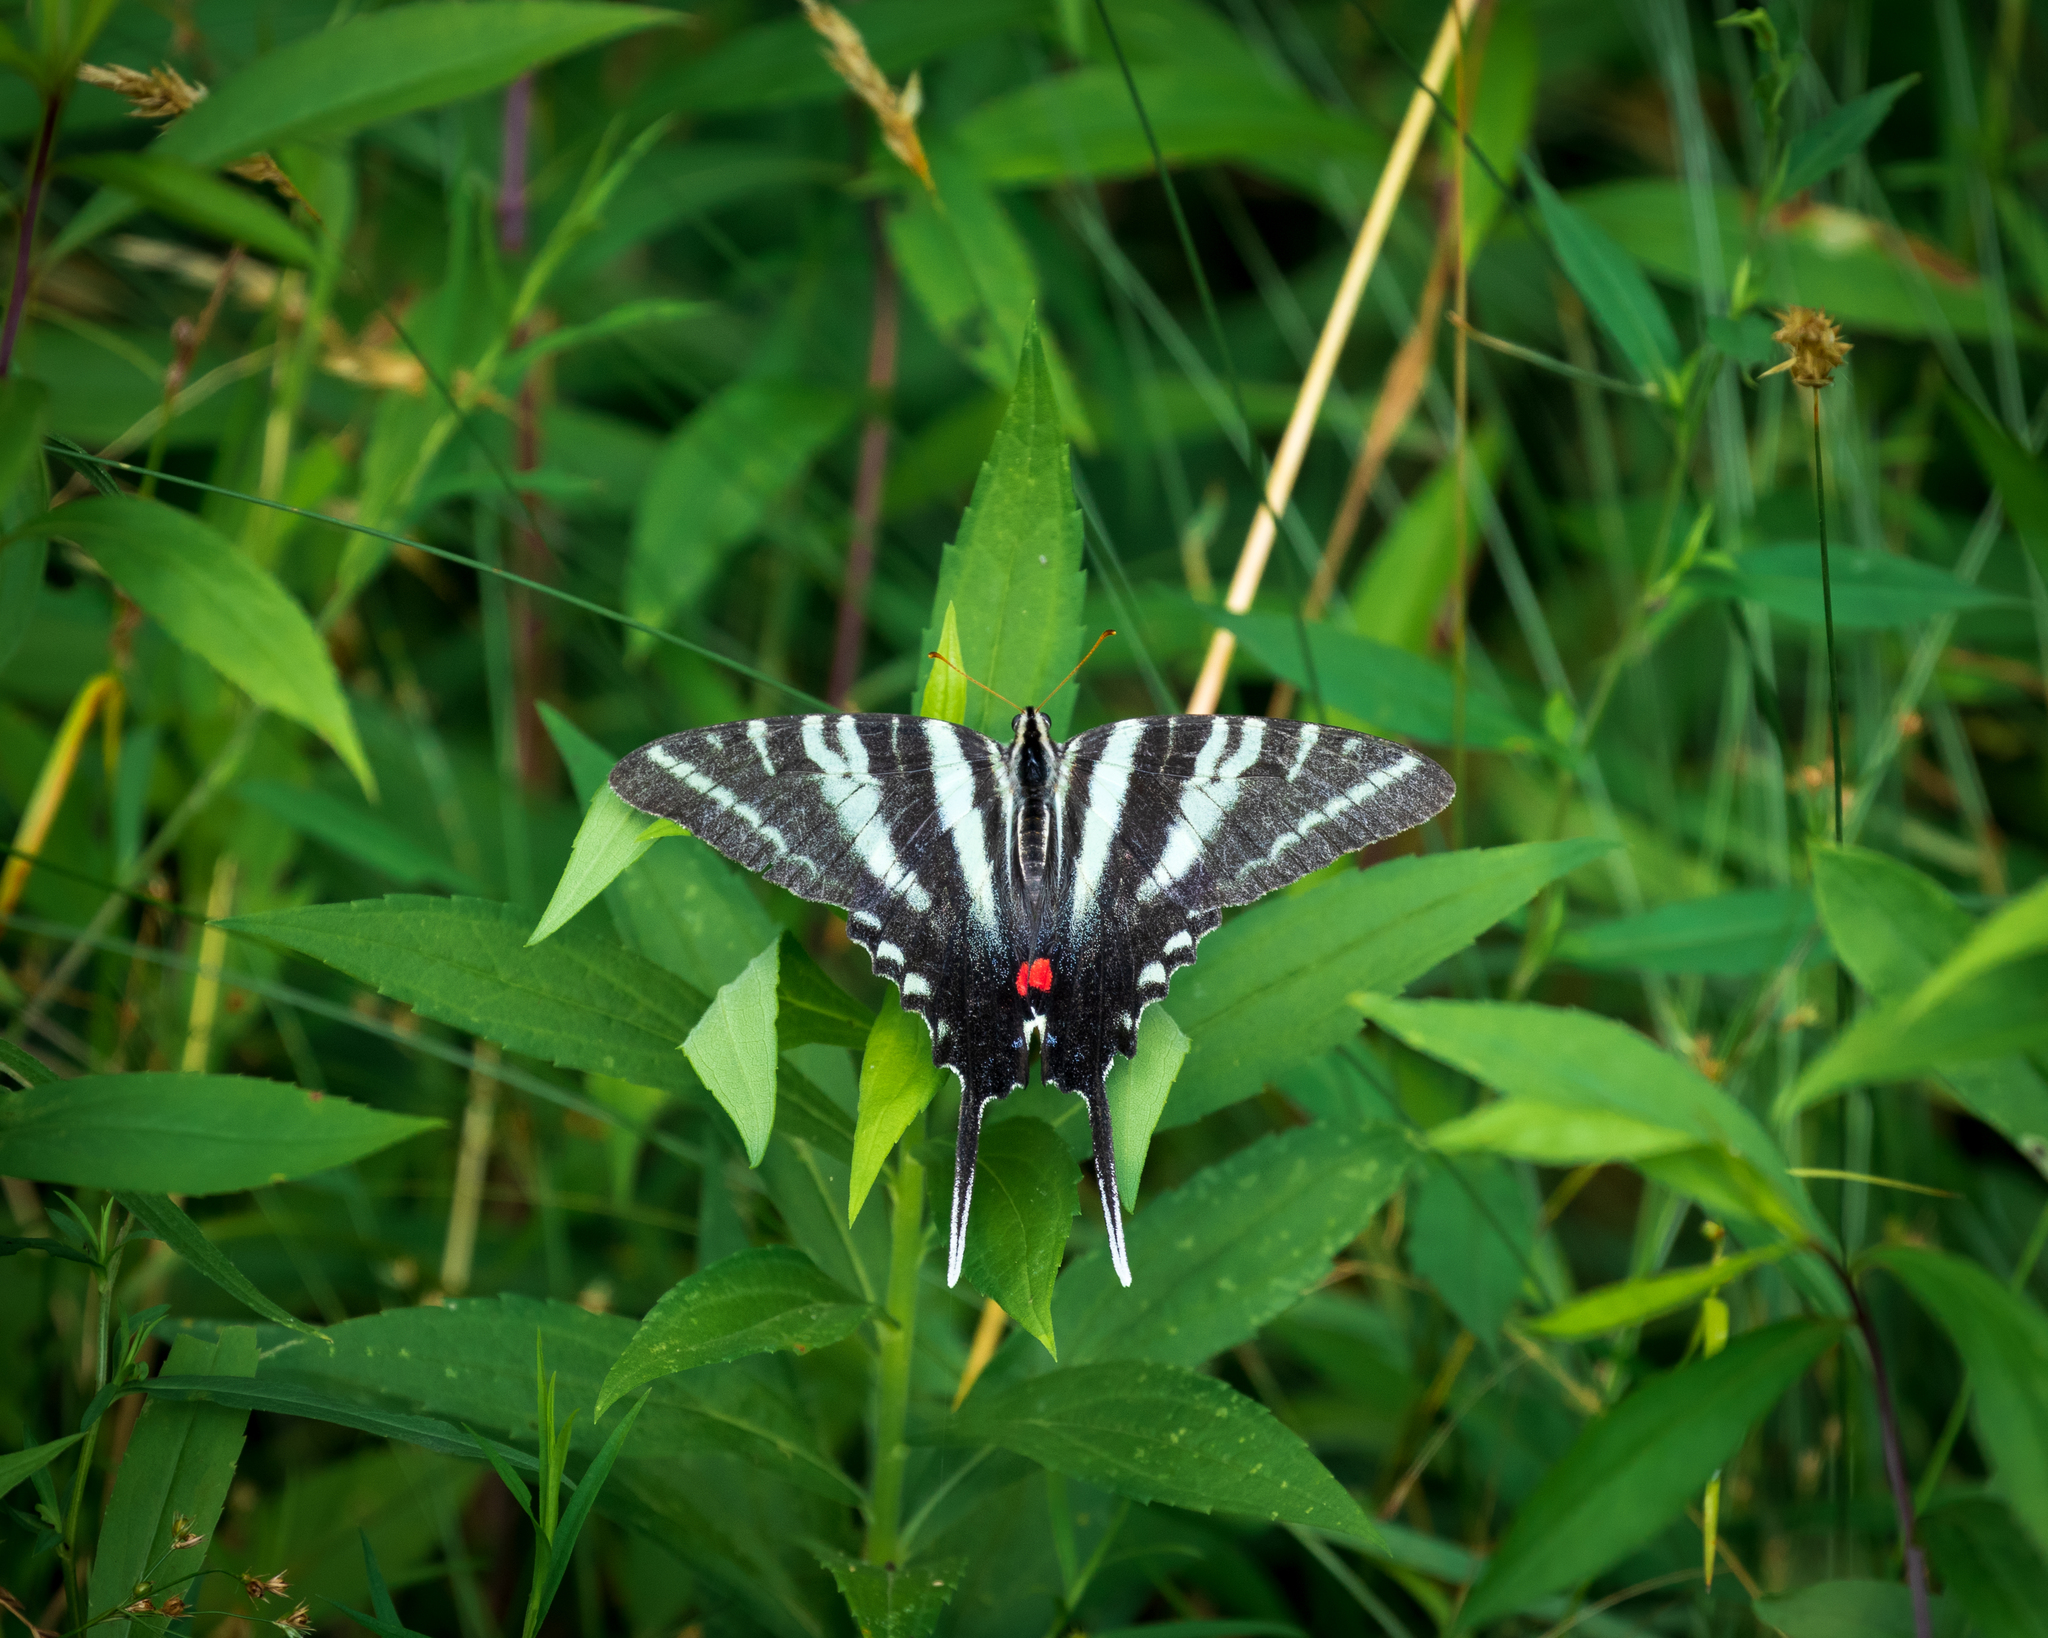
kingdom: Animalia
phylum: Arthropoda
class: Insecta
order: Lepidoptera
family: Papilionidae
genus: Protographium
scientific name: Protographium marcellus
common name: Zebra swallowtail
